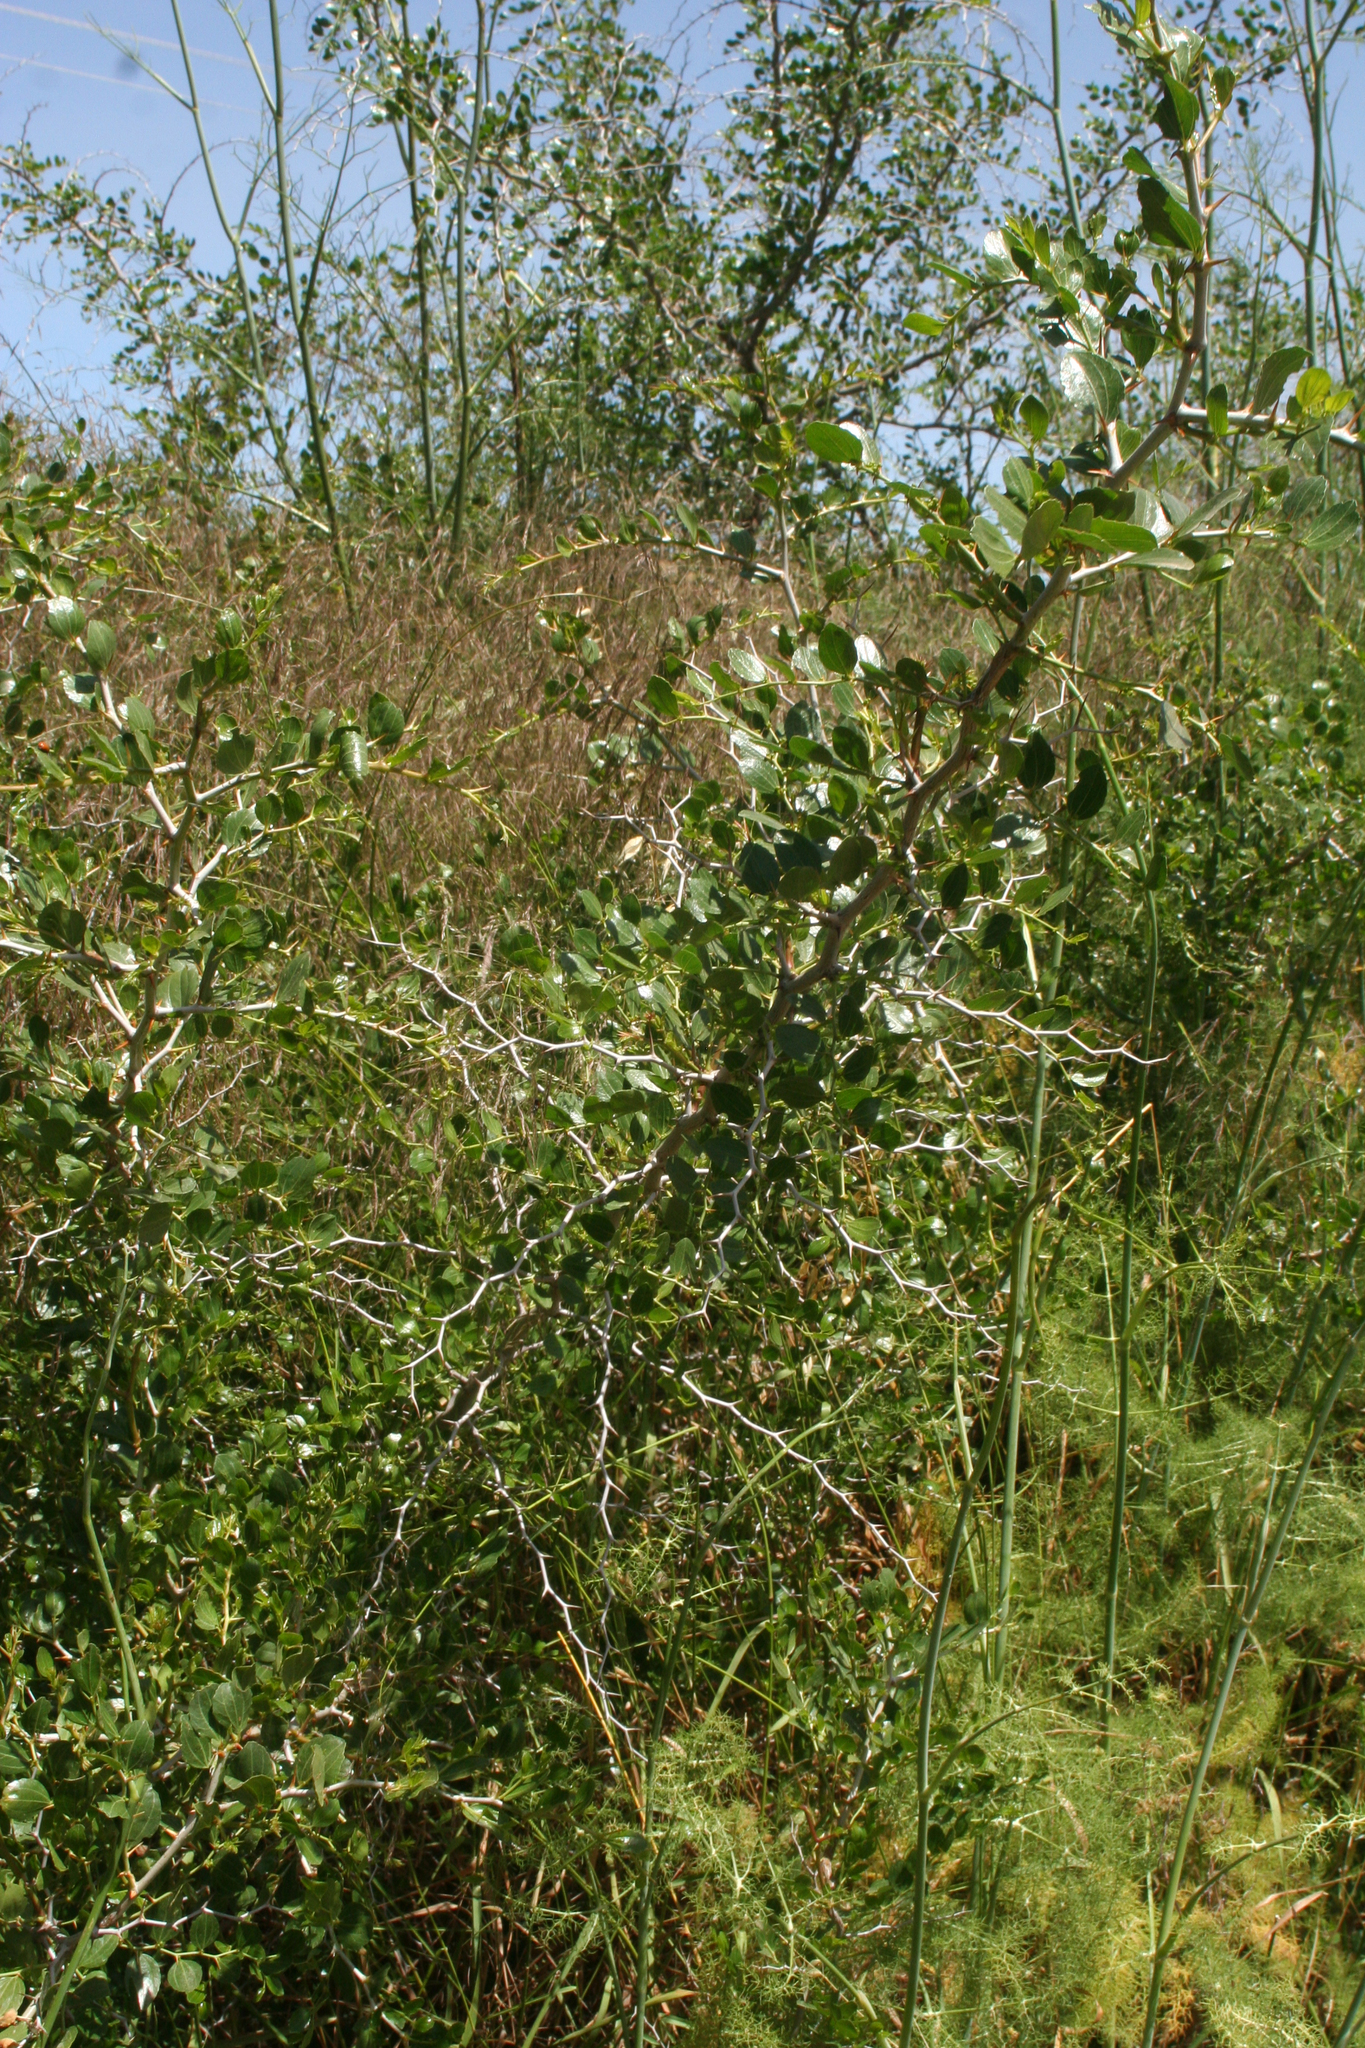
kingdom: Plantae
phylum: Tracheophyta
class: Magnoliopsida
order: Rosales
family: Rhamnaceae
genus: Ziziphus
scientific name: Ziziphus lotus
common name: Lotus
